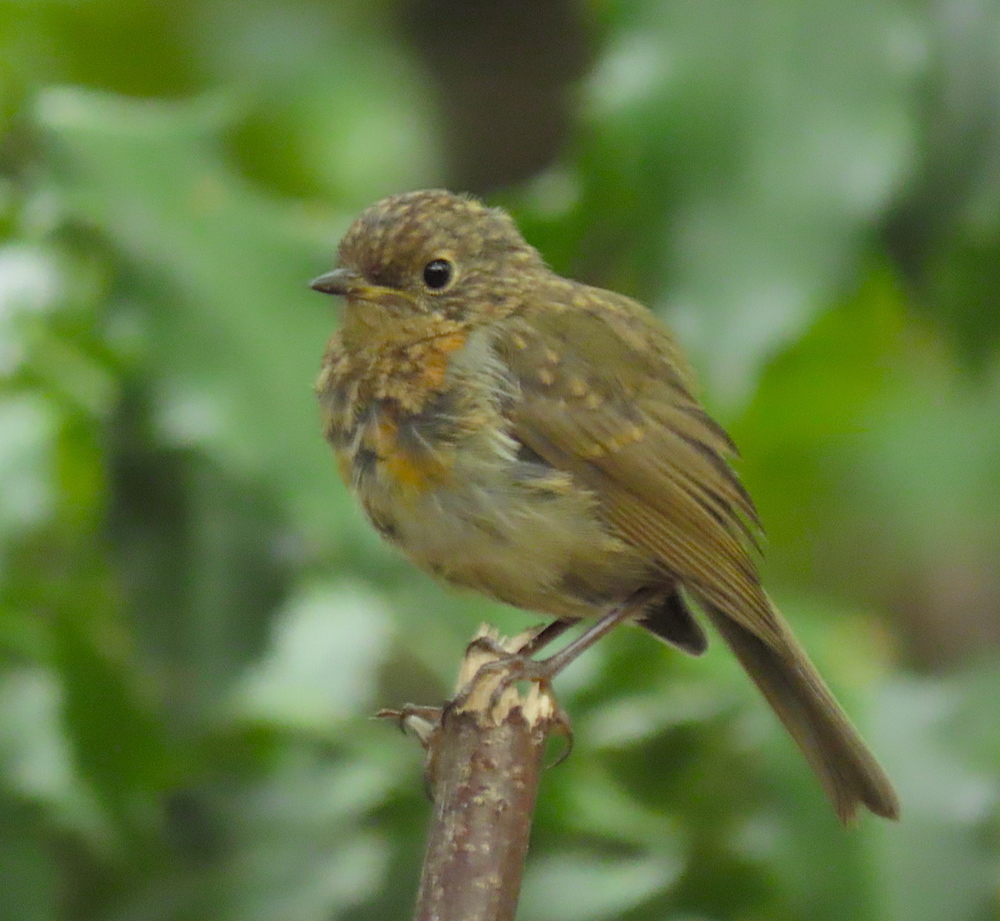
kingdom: Animalia
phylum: Chordata
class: Aves
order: Passeriformes
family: Muscicapidae
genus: Erithacus
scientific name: Erithacus rubecula
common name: European robin
